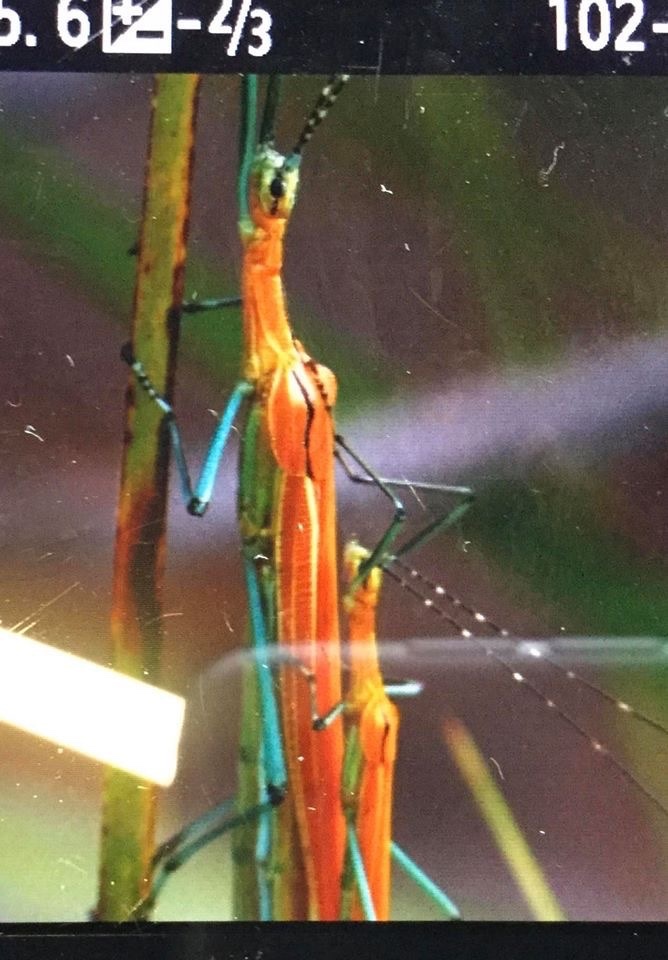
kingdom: Animalia
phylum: Arthropoda
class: Insecta
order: Phasmida
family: Pseudophasmatidae
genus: Tithonophasma
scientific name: Tithonophasma tithonus
